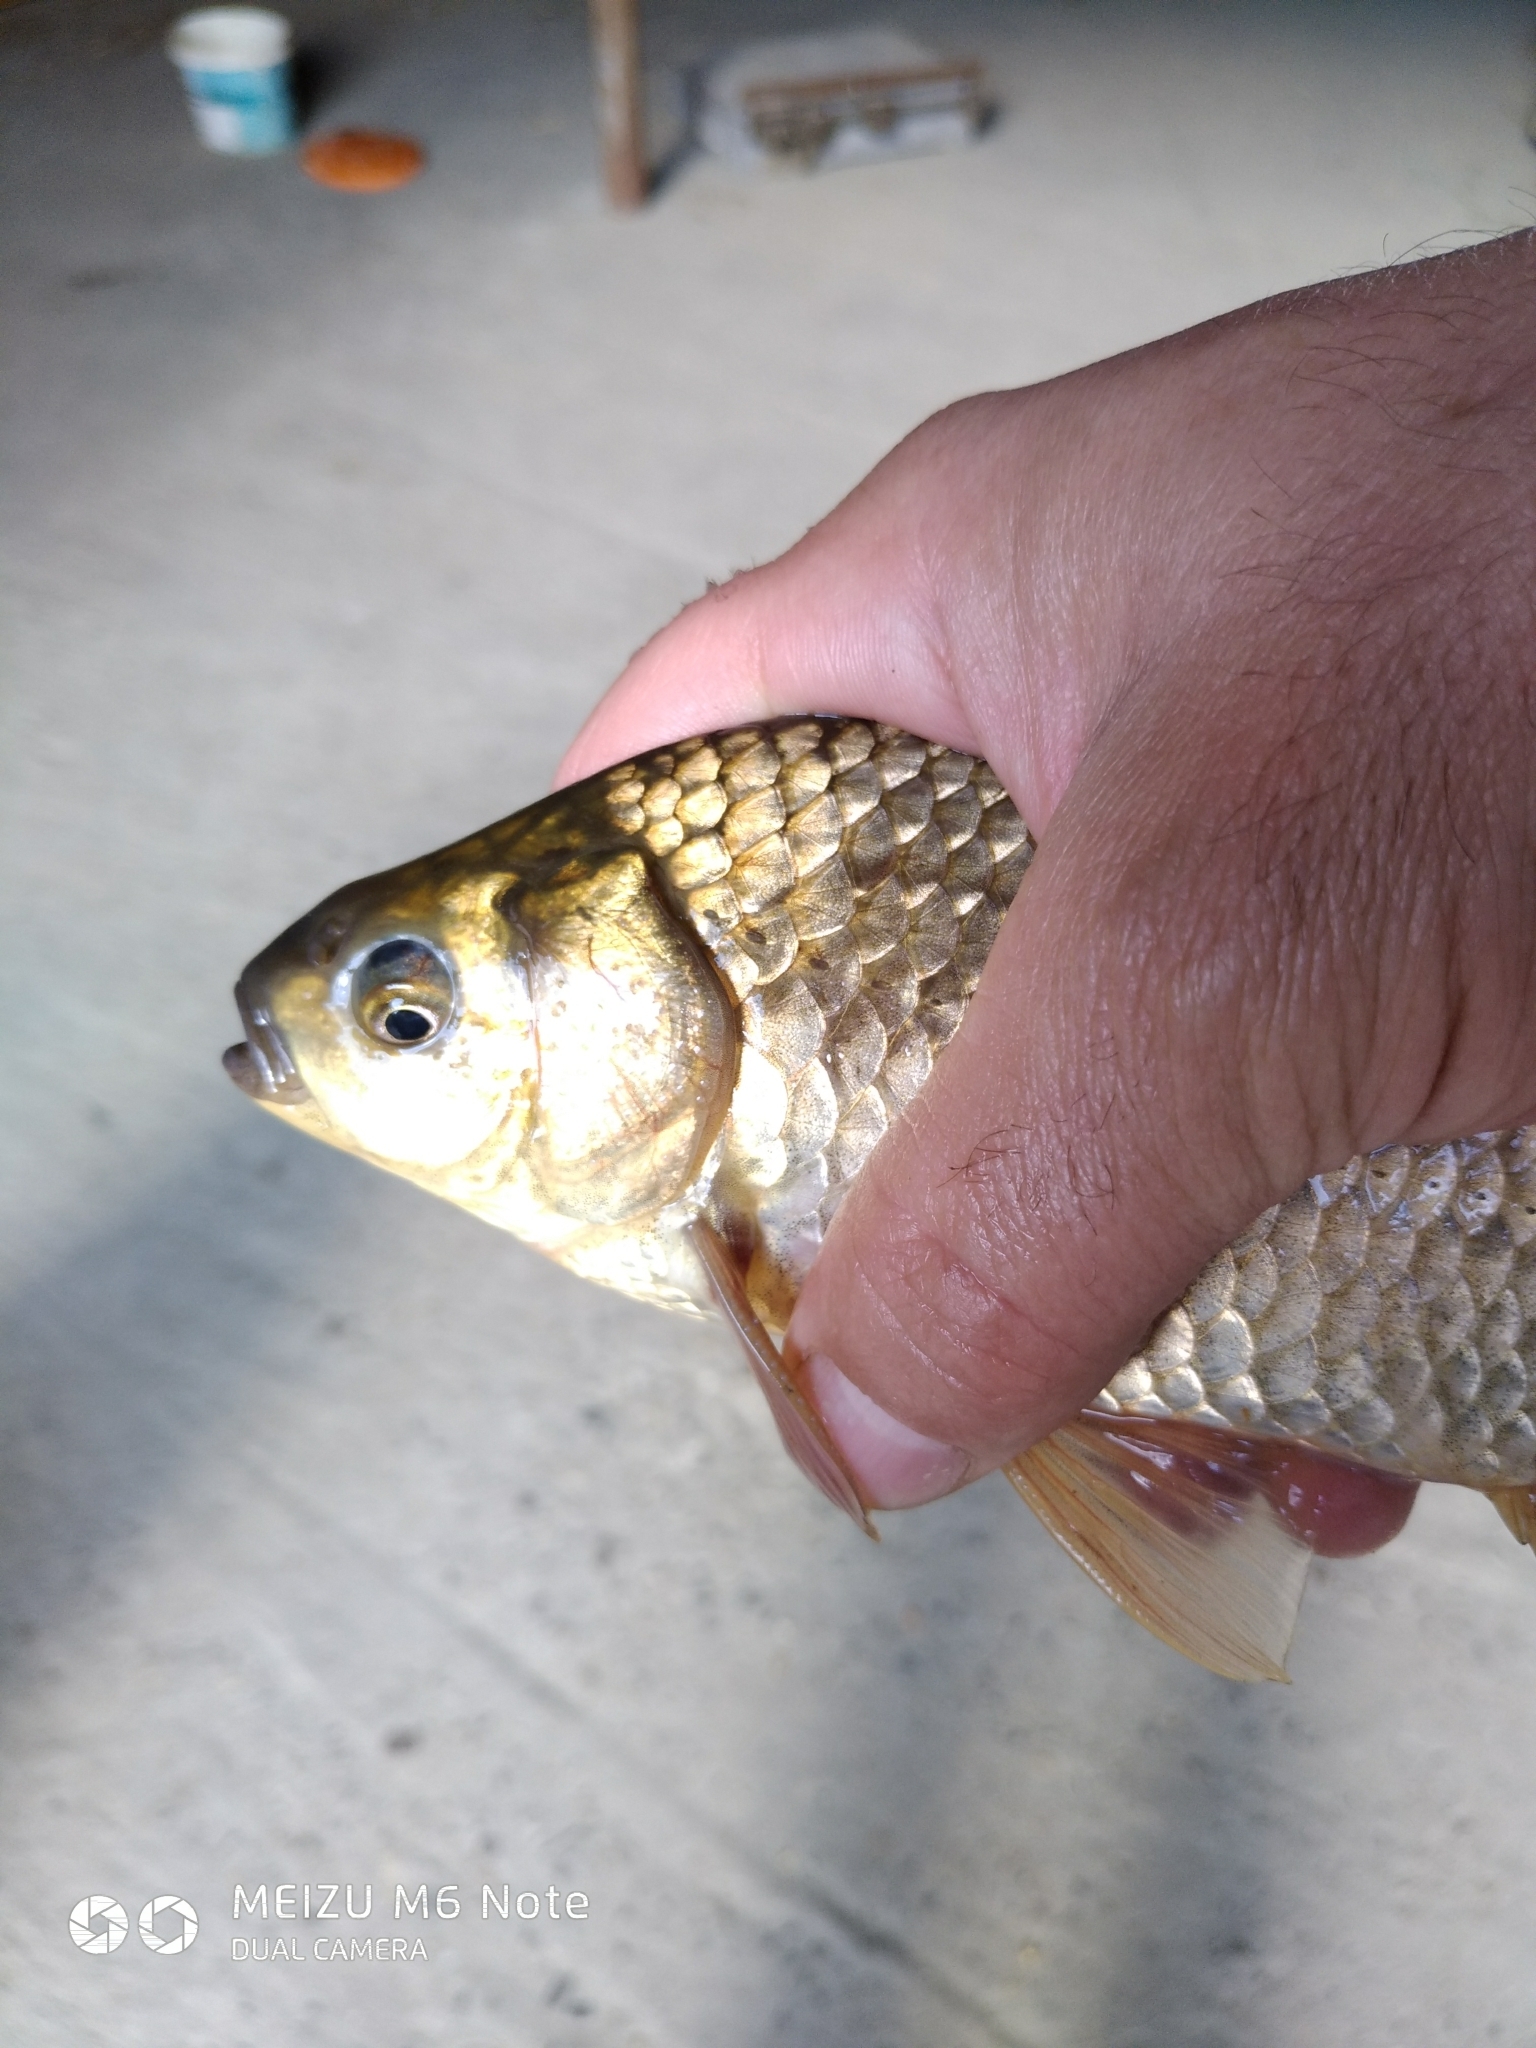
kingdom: Animalia
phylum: Chordata
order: Cypriniformes
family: Cyprinidae
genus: Carassius
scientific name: Carassius gibelio
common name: Prussian carp
